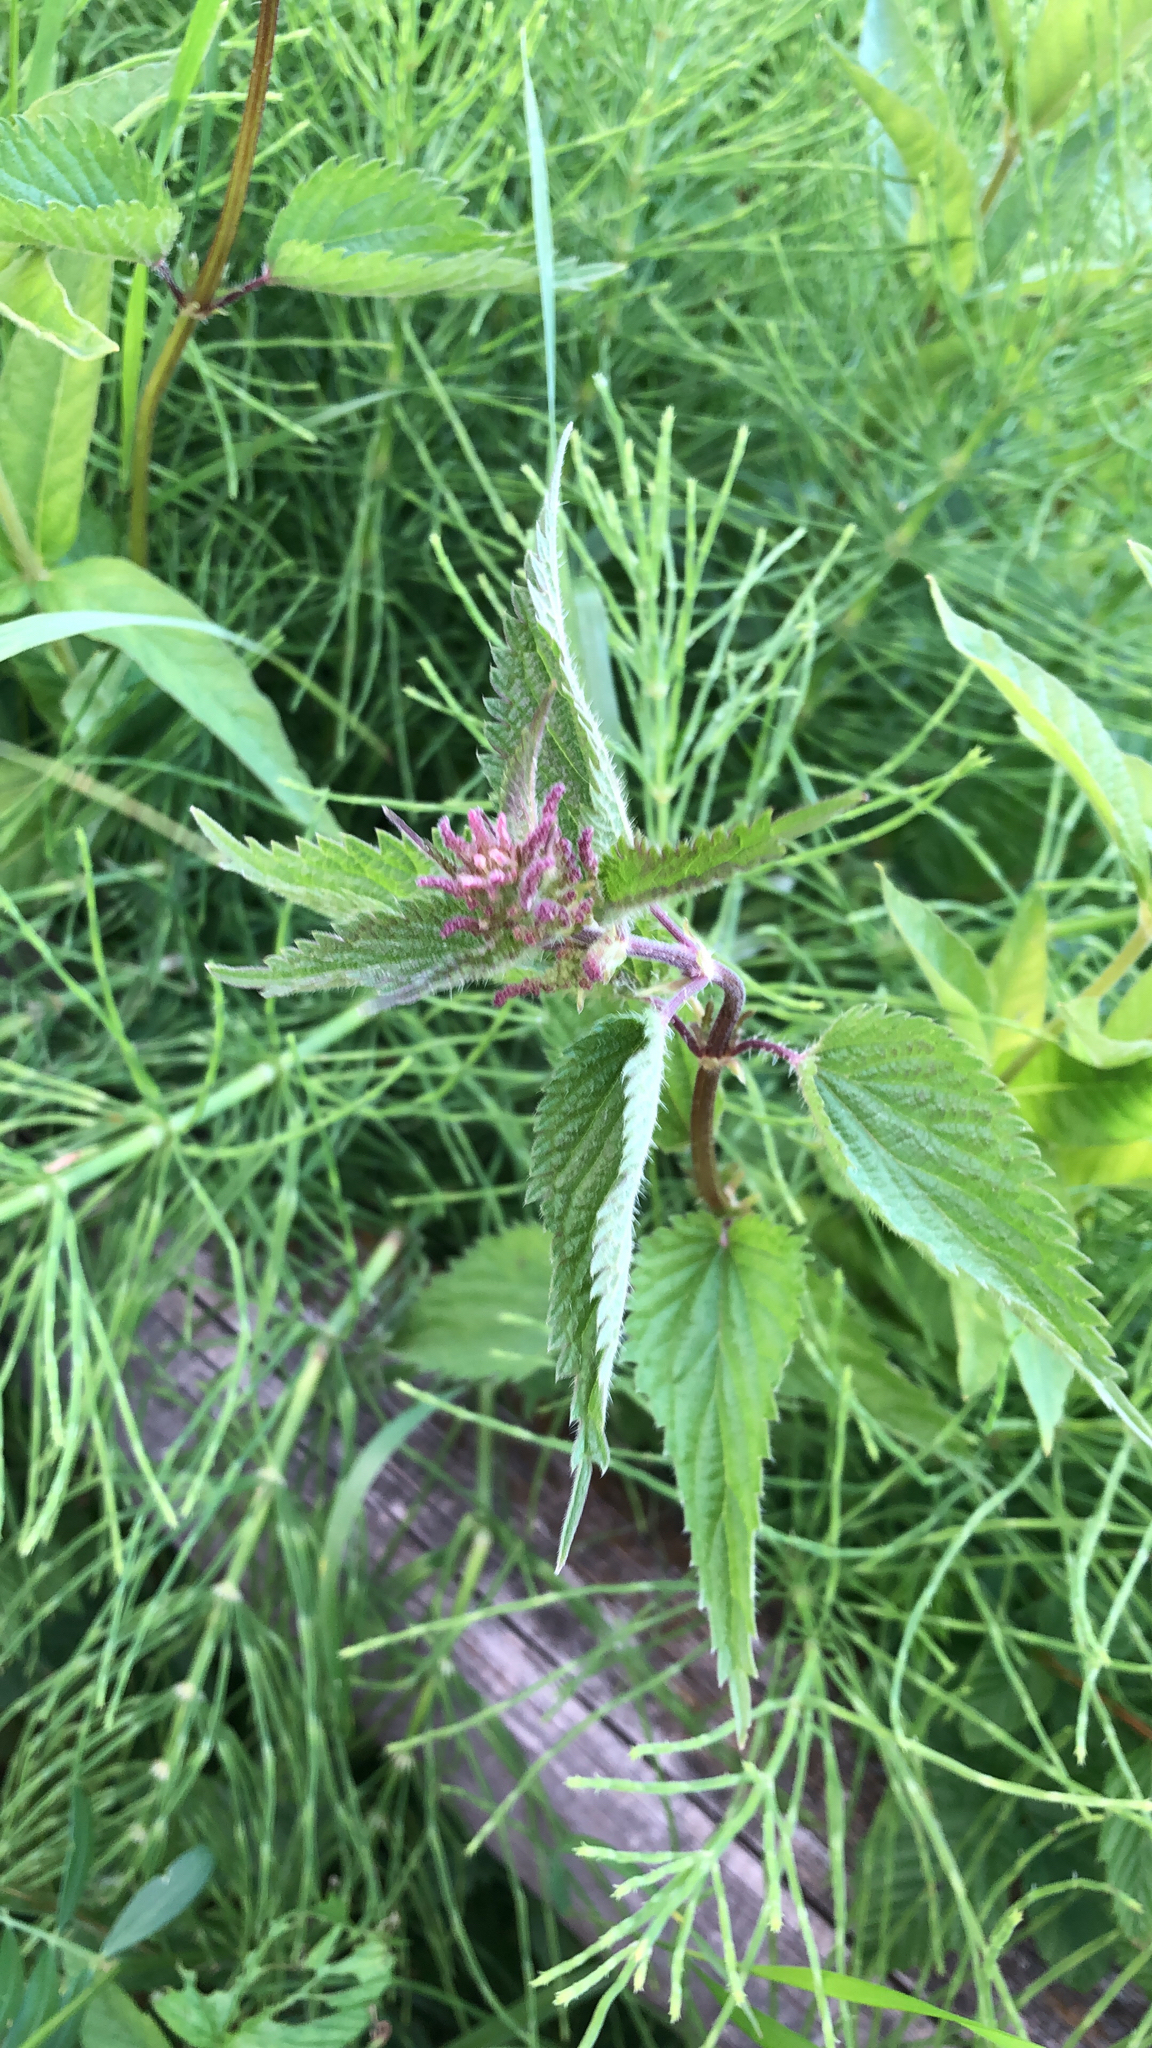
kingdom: Plantae
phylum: Tracheophyta
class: Magnoliopsida
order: Rosales
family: Urticaceae
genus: Urtica
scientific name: Urtica dioica
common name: Common nettle
